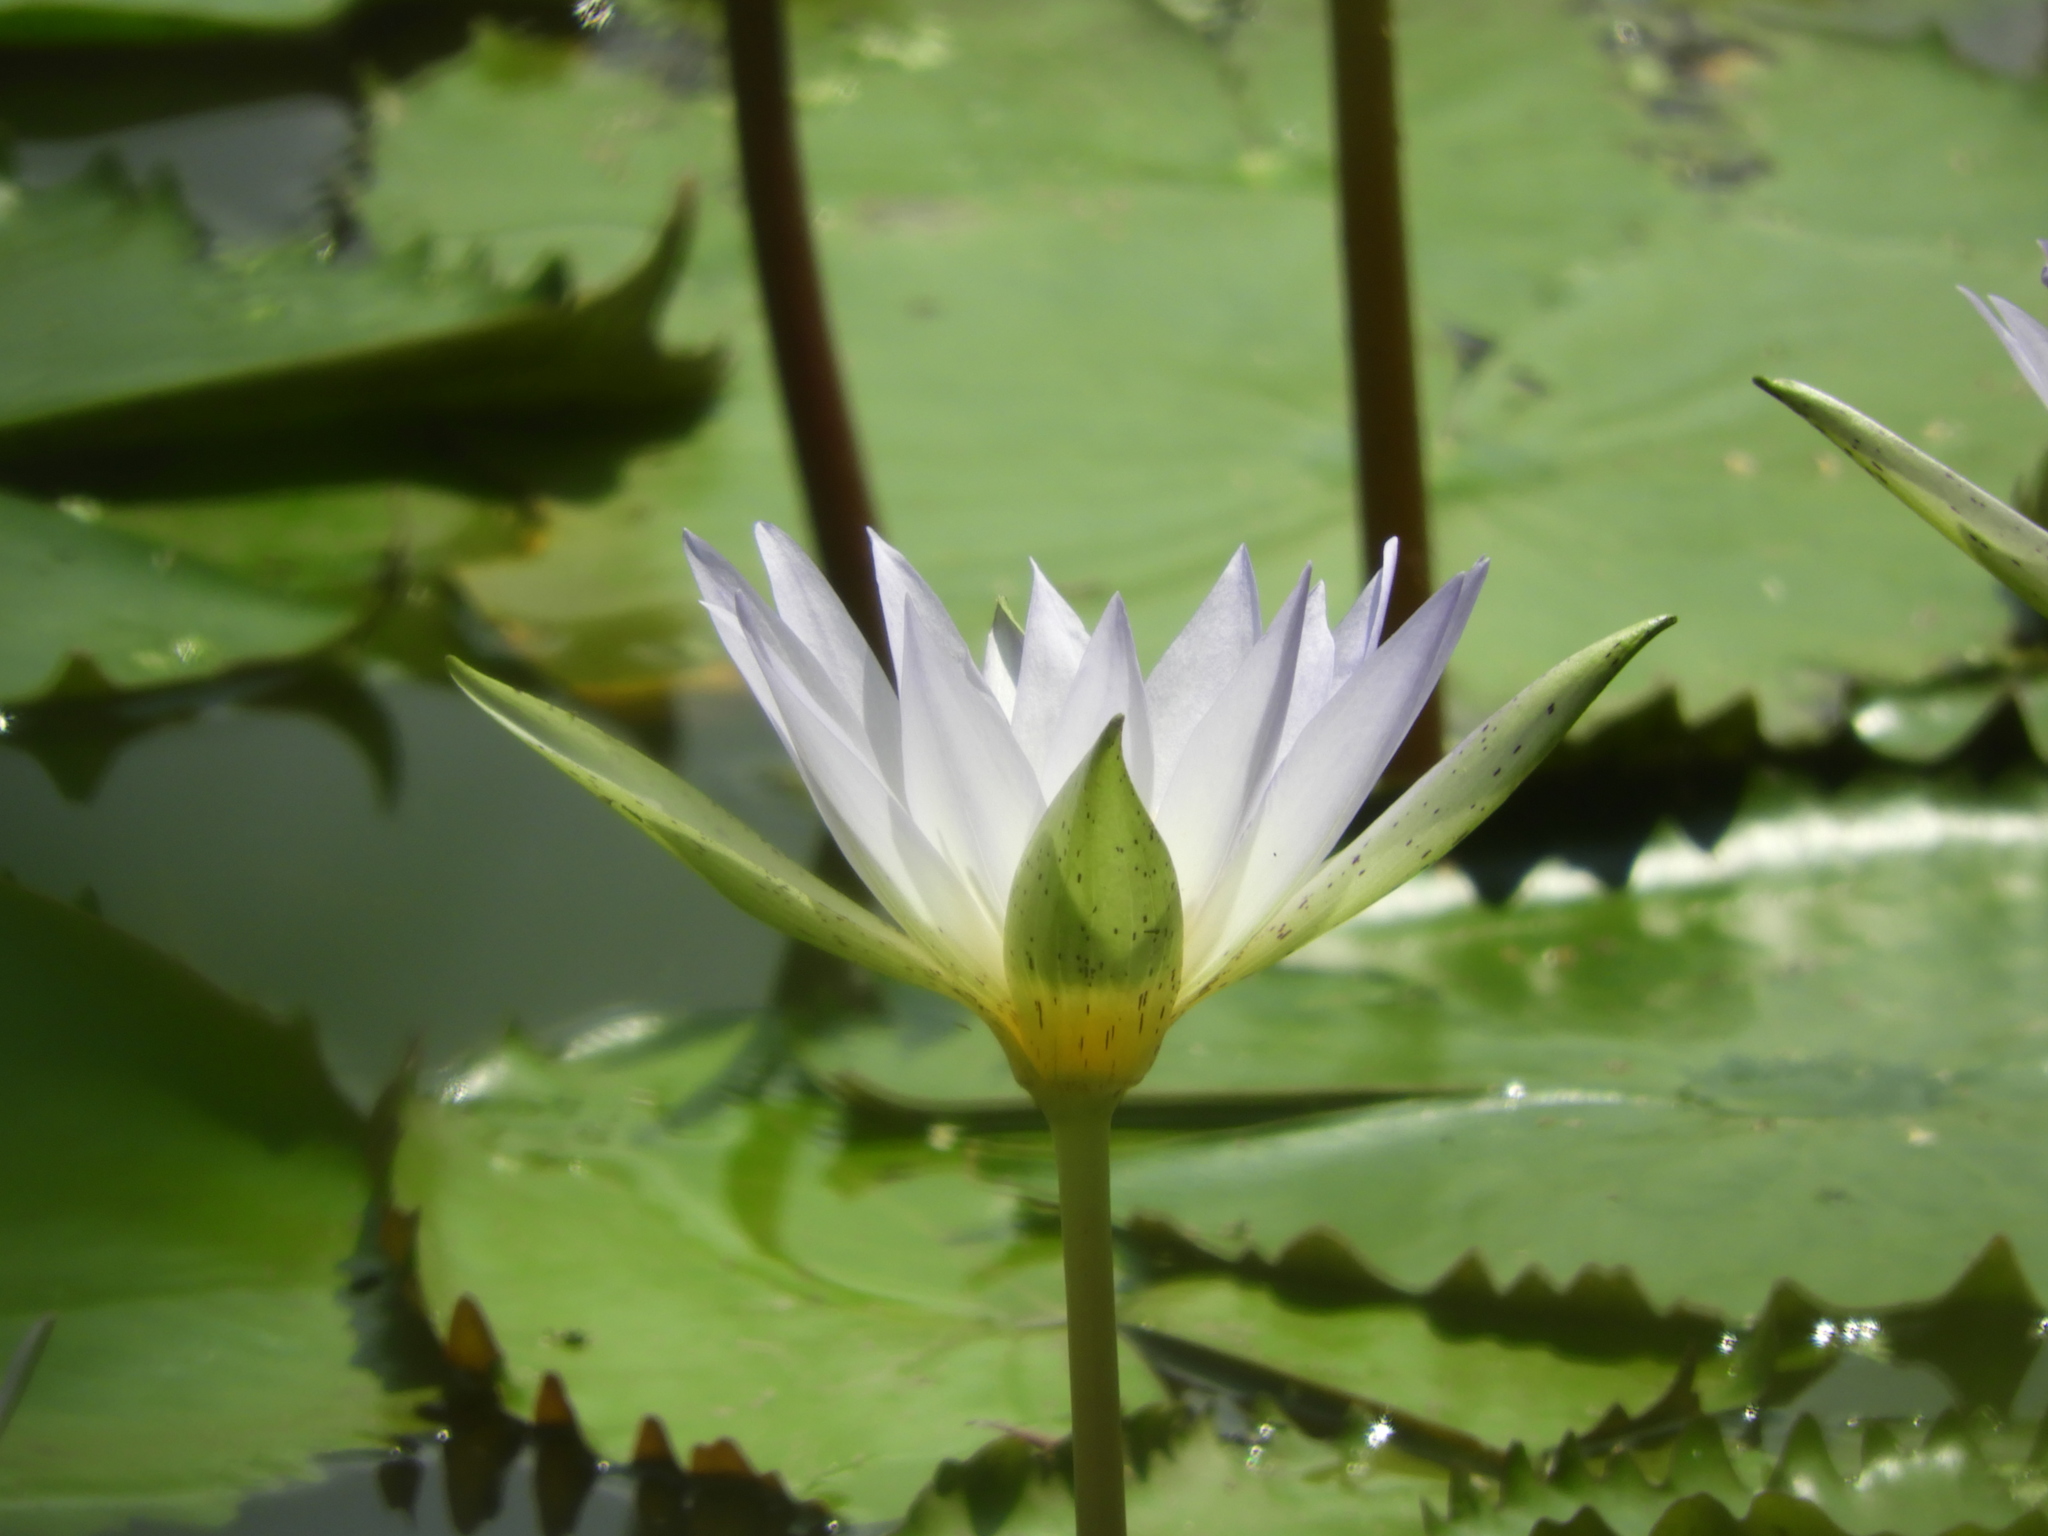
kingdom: Plantae
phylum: Tracheophyta
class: Magnoliopsida
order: Nymphaeales
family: Nymphaeaceae
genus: Nymphaea
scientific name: Nymphaea elegans
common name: Blue water-lily
